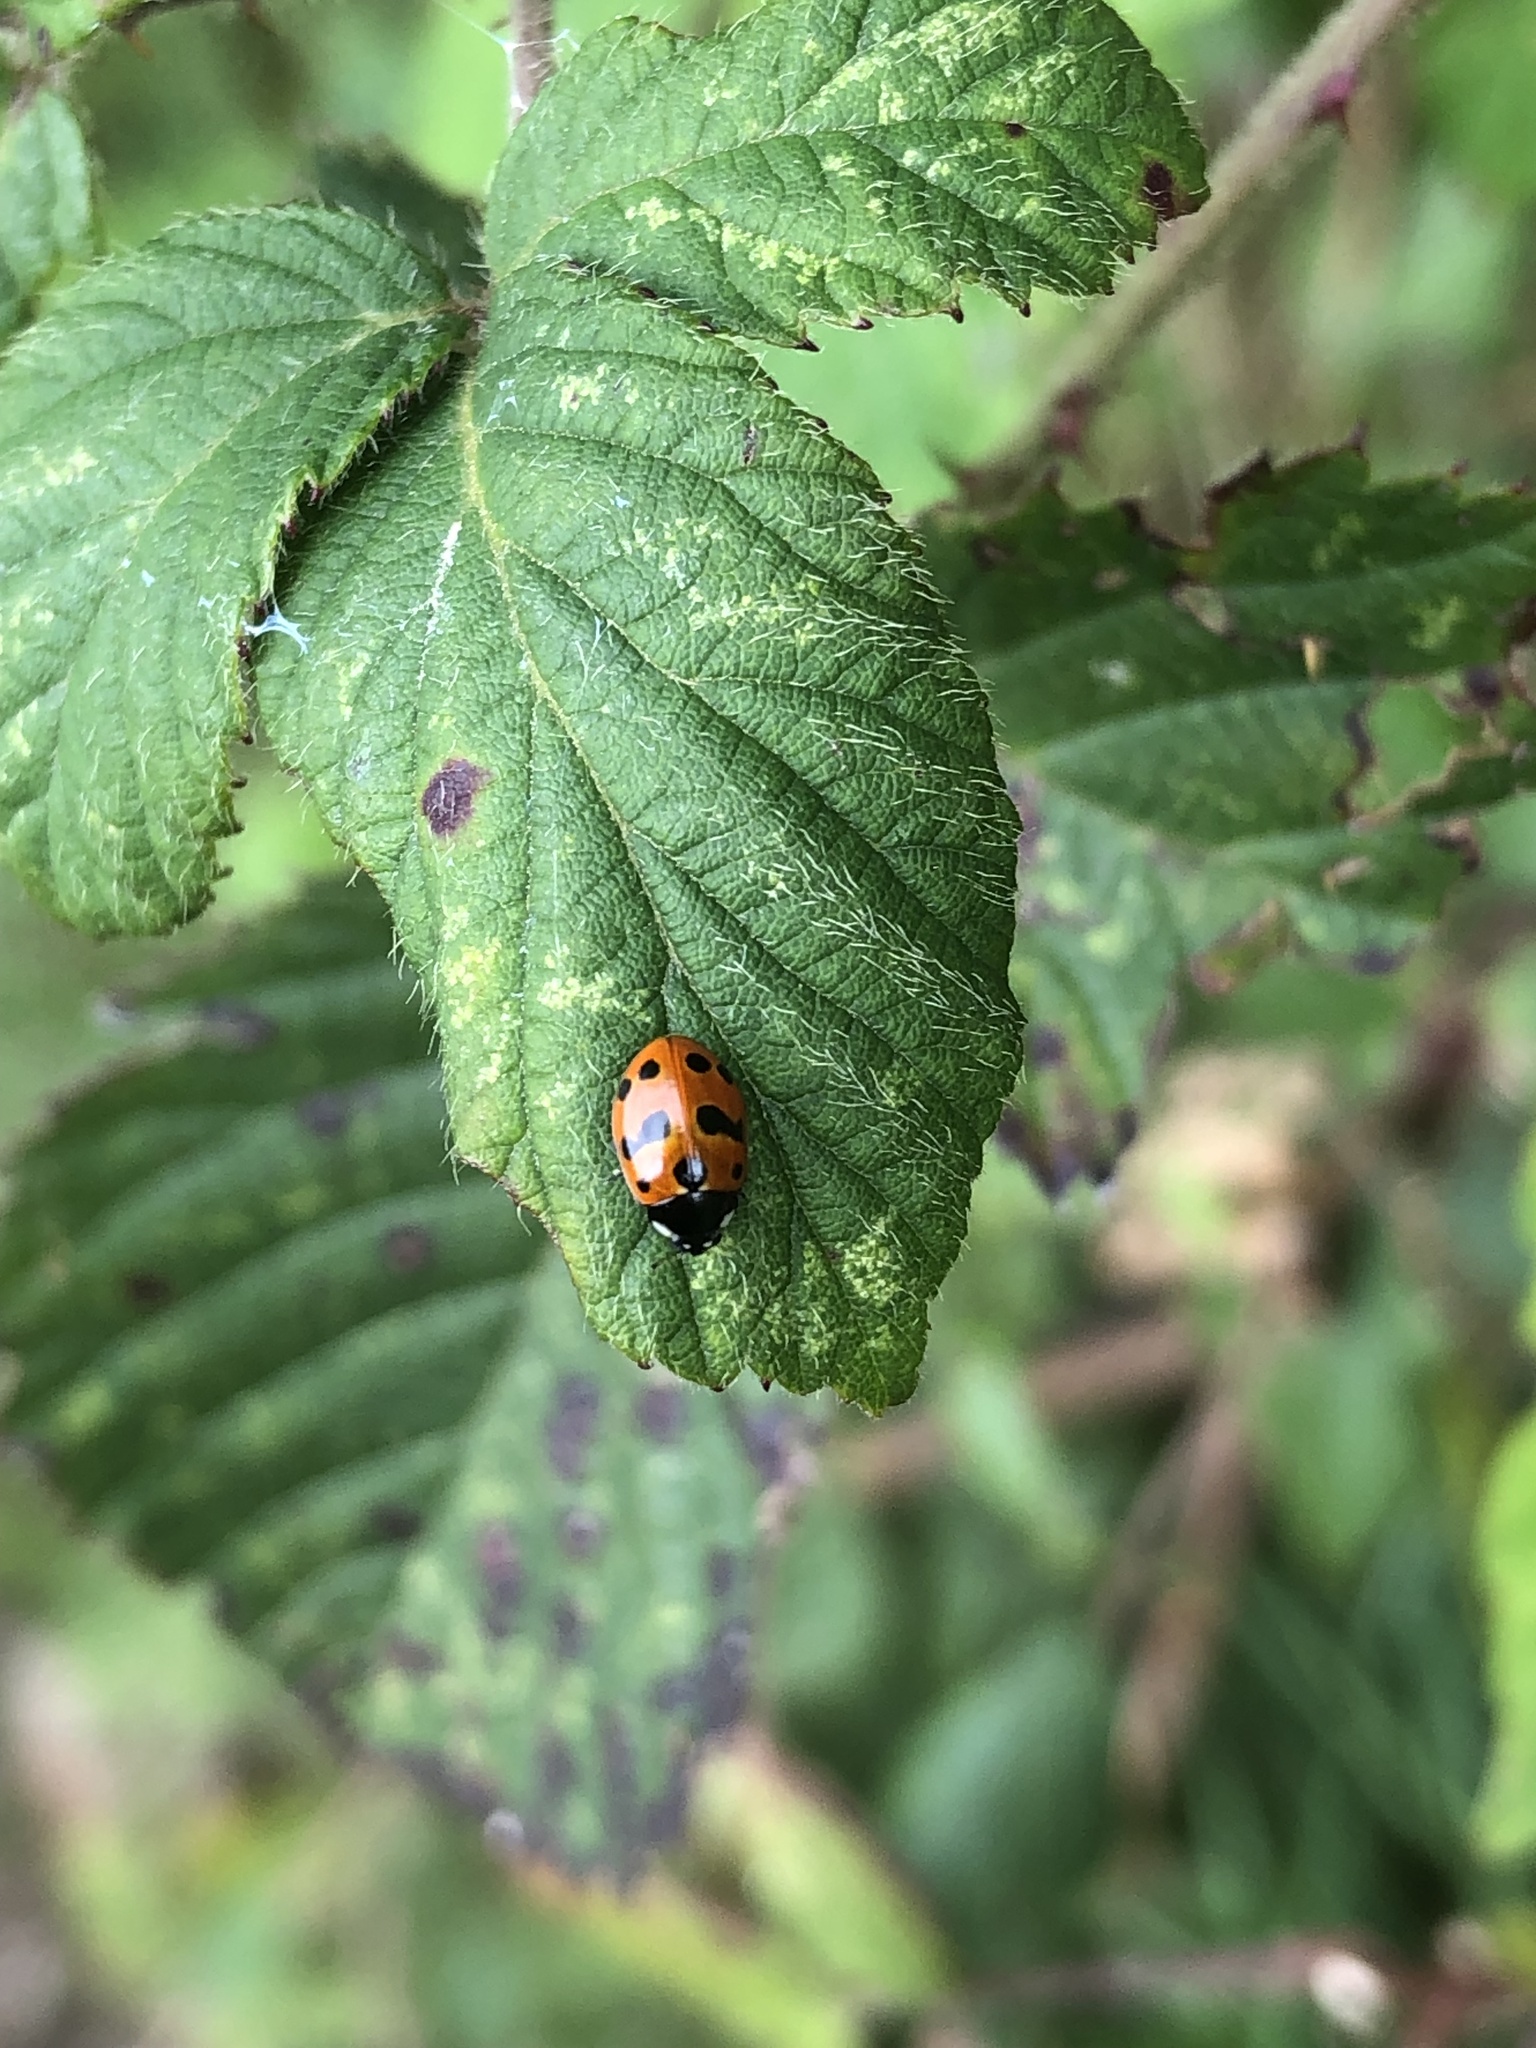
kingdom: Animalia
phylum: Arthropoda
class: Insecta
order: Coleoptera
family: Coccinellidae
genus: Coccinella
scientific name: Coccinella undecimpunctata
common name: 11-spot ladybird
